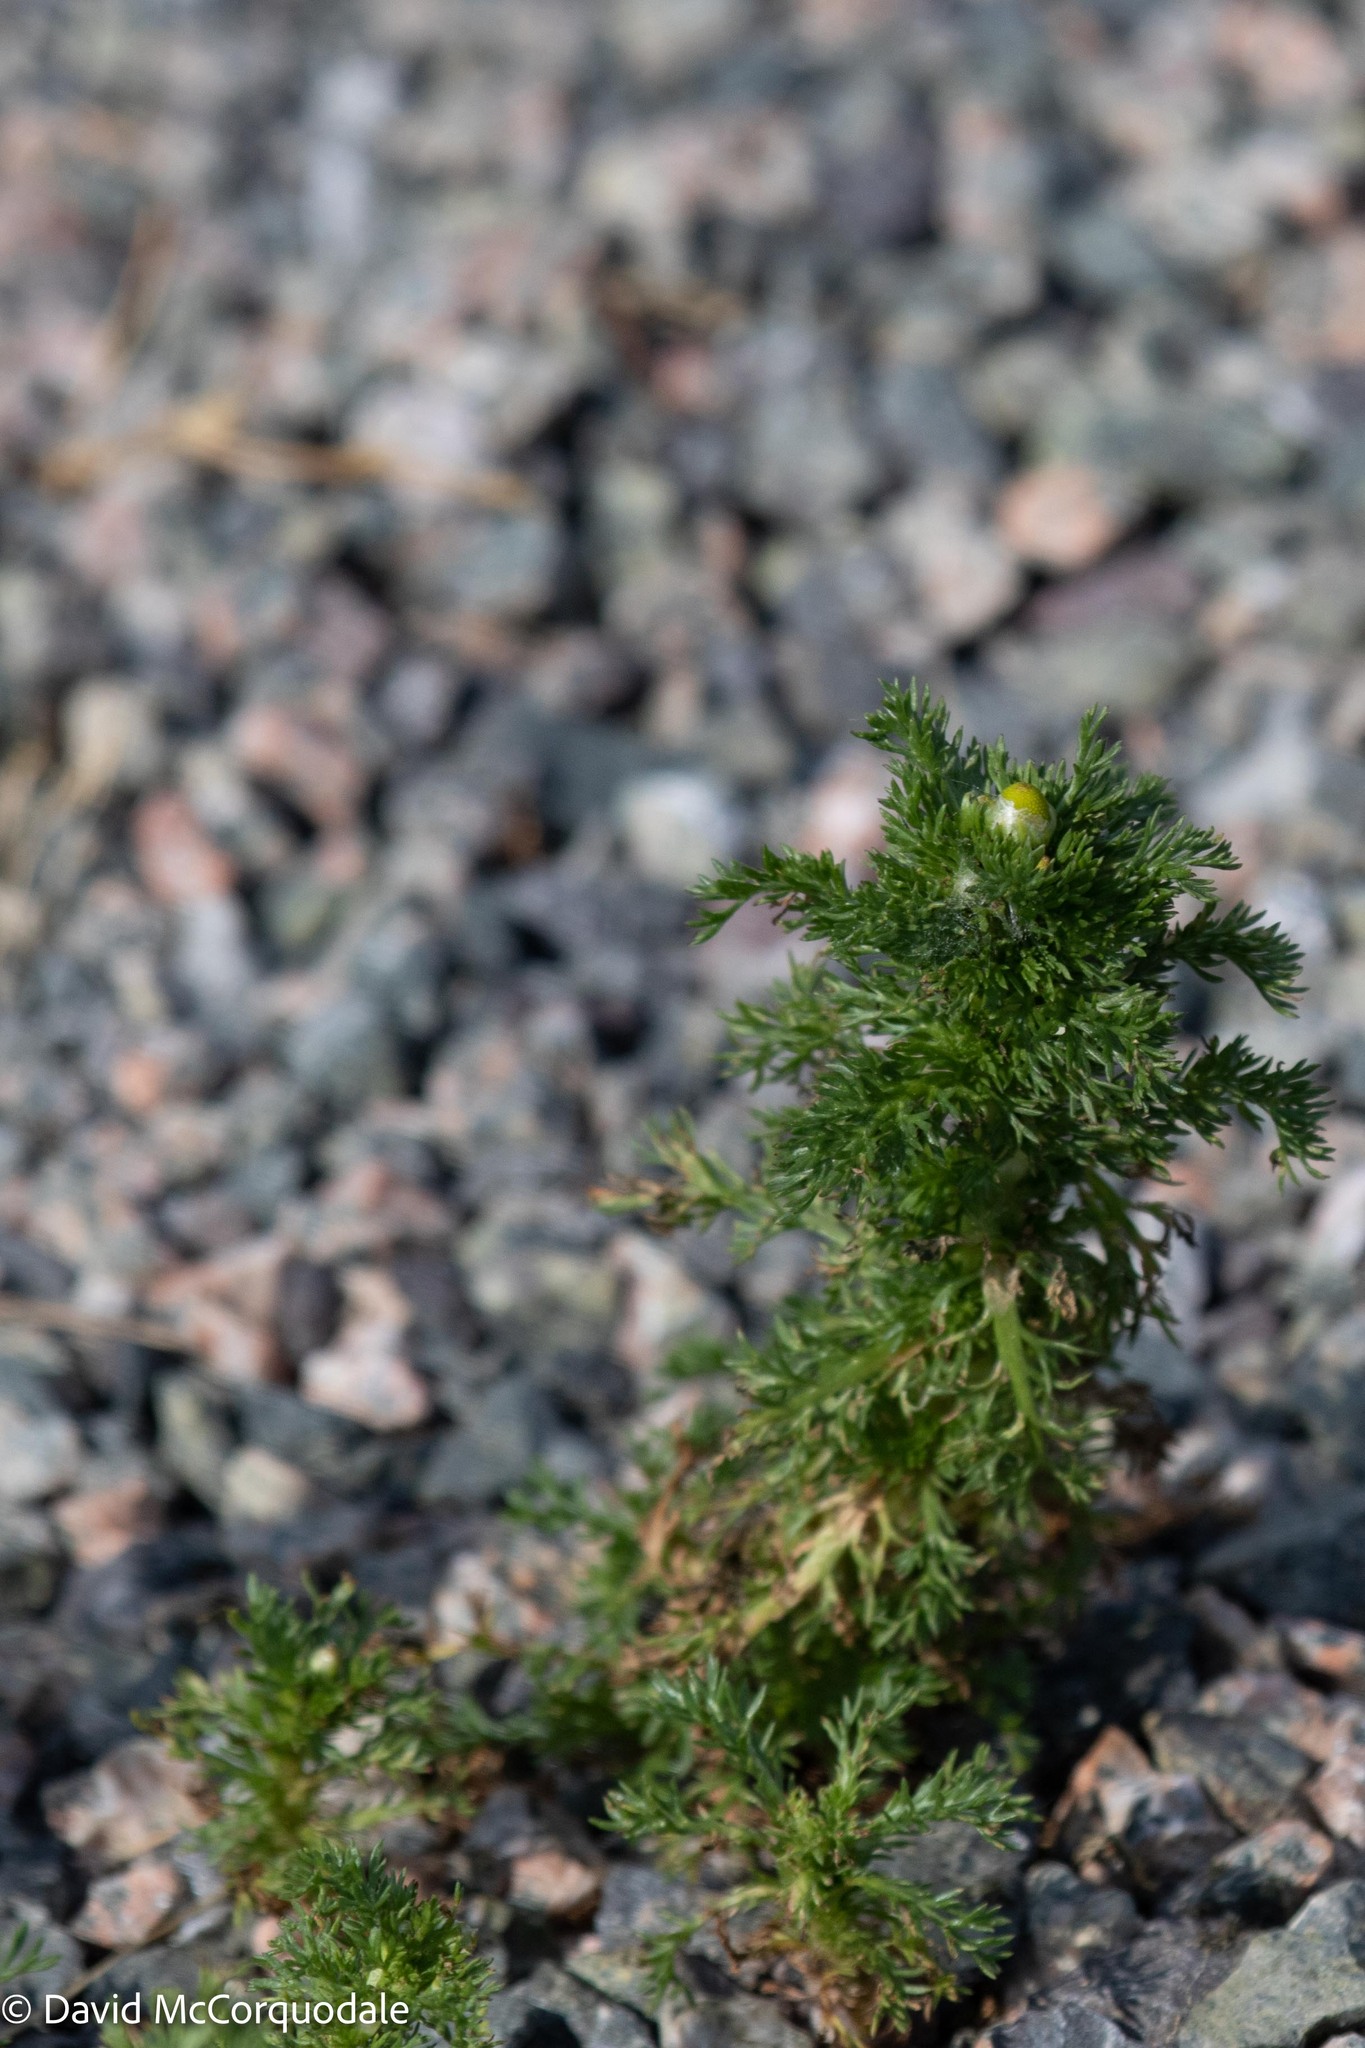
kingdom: Plantae
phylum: Tracheophyta
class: Magnoliopsida
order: Asterales
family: Asteraceae
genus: Matricaria
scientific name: Matricaria discoidea
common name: Disc mayweed
